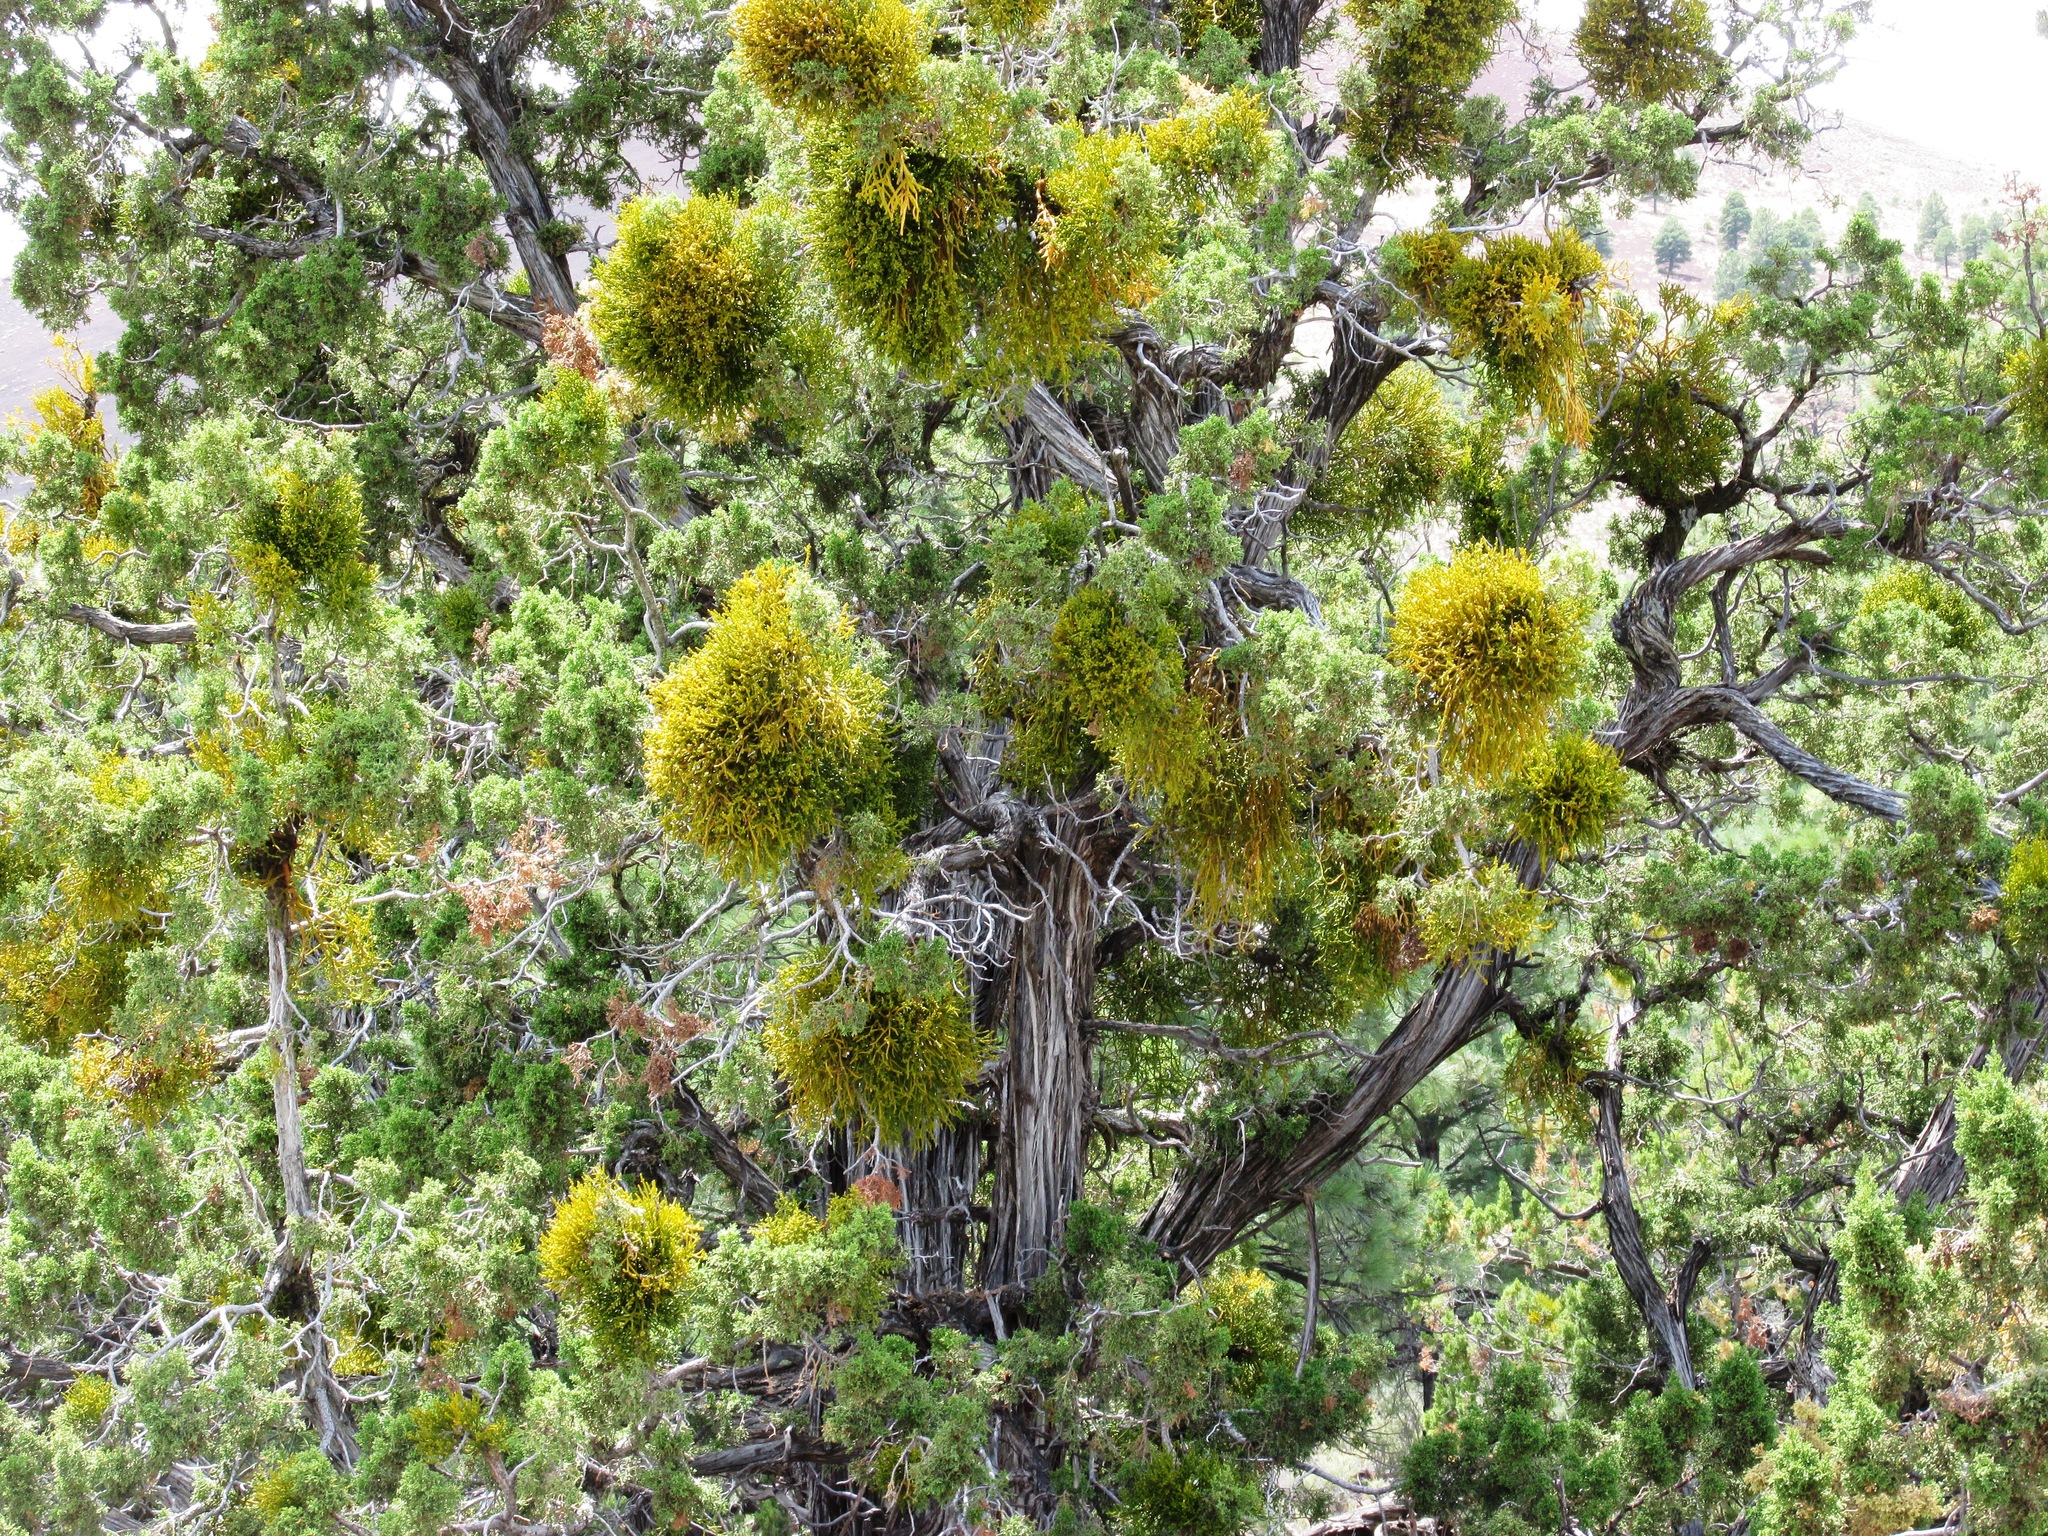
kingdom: Plantae
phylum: Tracheophyta
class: Magnoliopsida
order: Santalales
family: Viscaceae
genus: Phoradendron
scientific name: Phoradendron juniperinum
